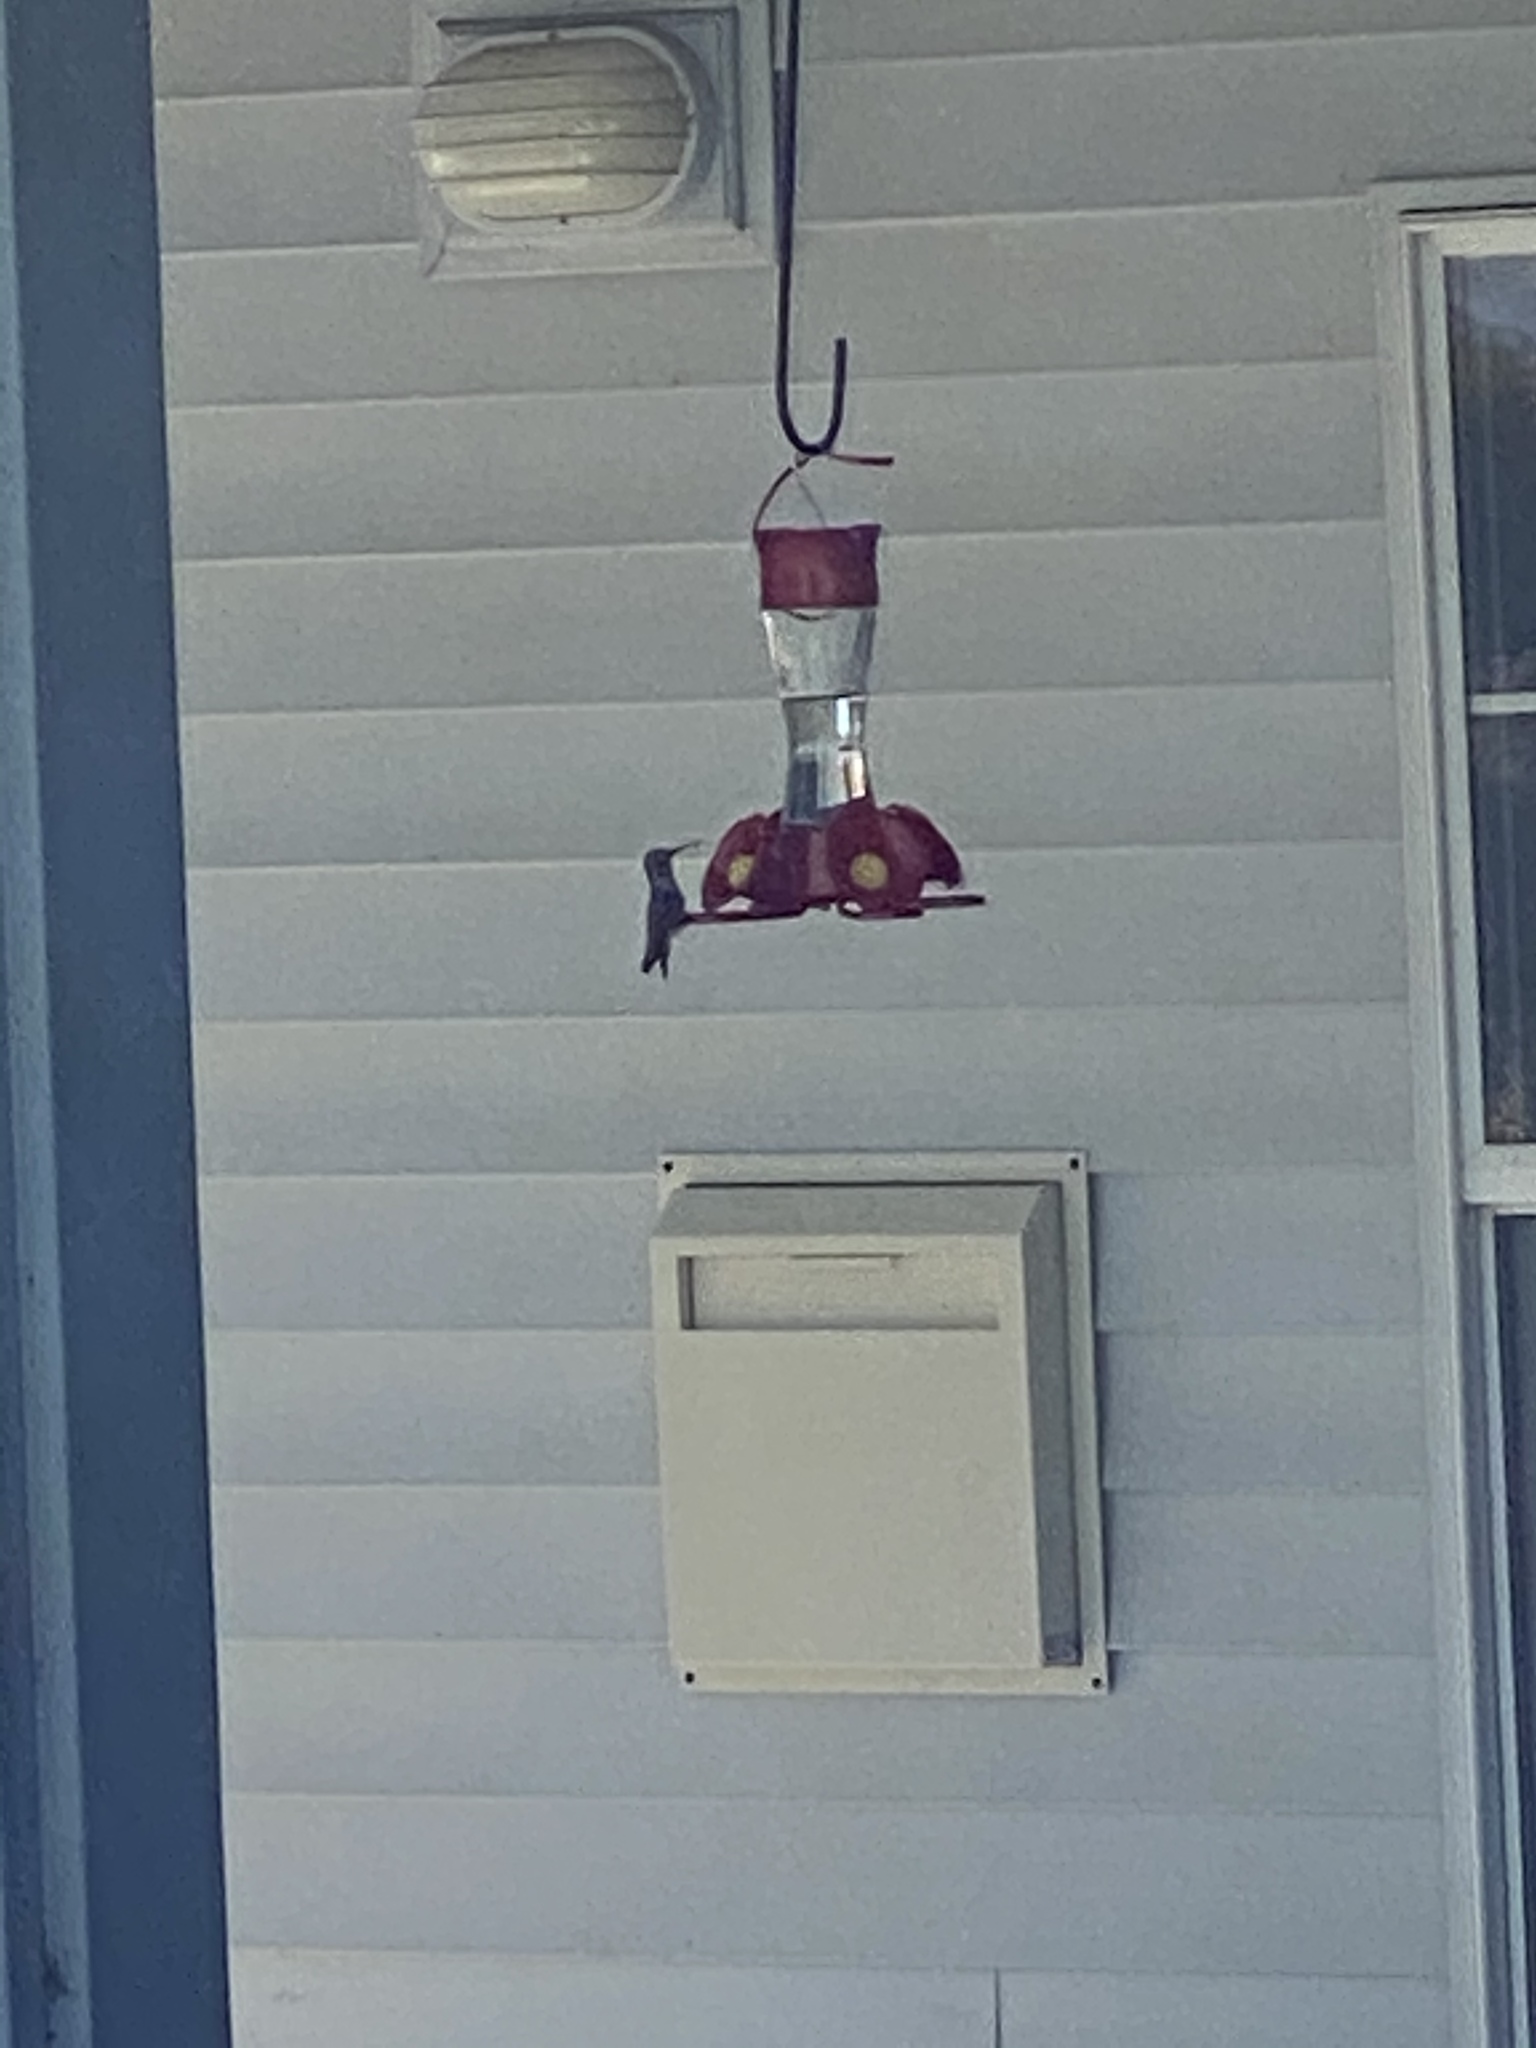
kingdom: Animalia
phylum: Chordata
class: Aves
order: Apodiformes
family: Trochilidae
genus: Calypte
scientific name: Calypte anna
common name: Anna's hummingbird
